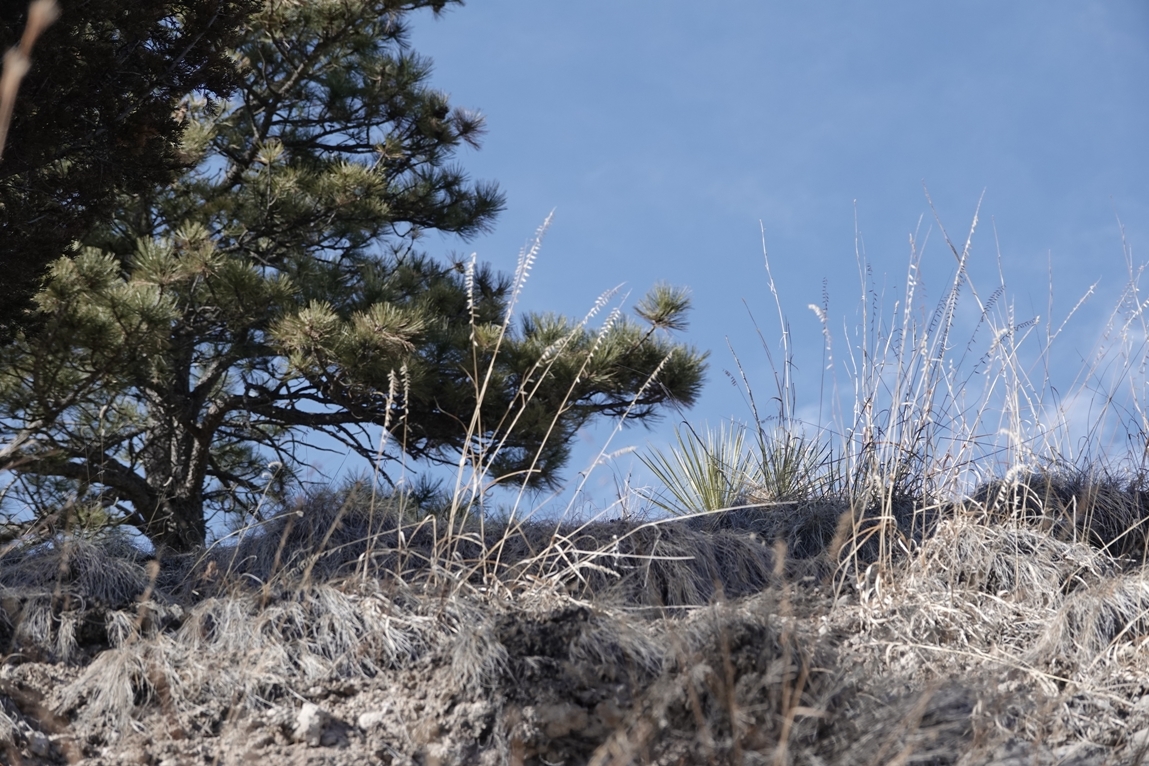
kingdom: Plantae
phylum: Tracheophyta
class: Liliopsida
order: Poales
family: Poaceae
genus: Bouteloua
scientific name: Bouteloua curtipendula
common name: Side-oats grama
